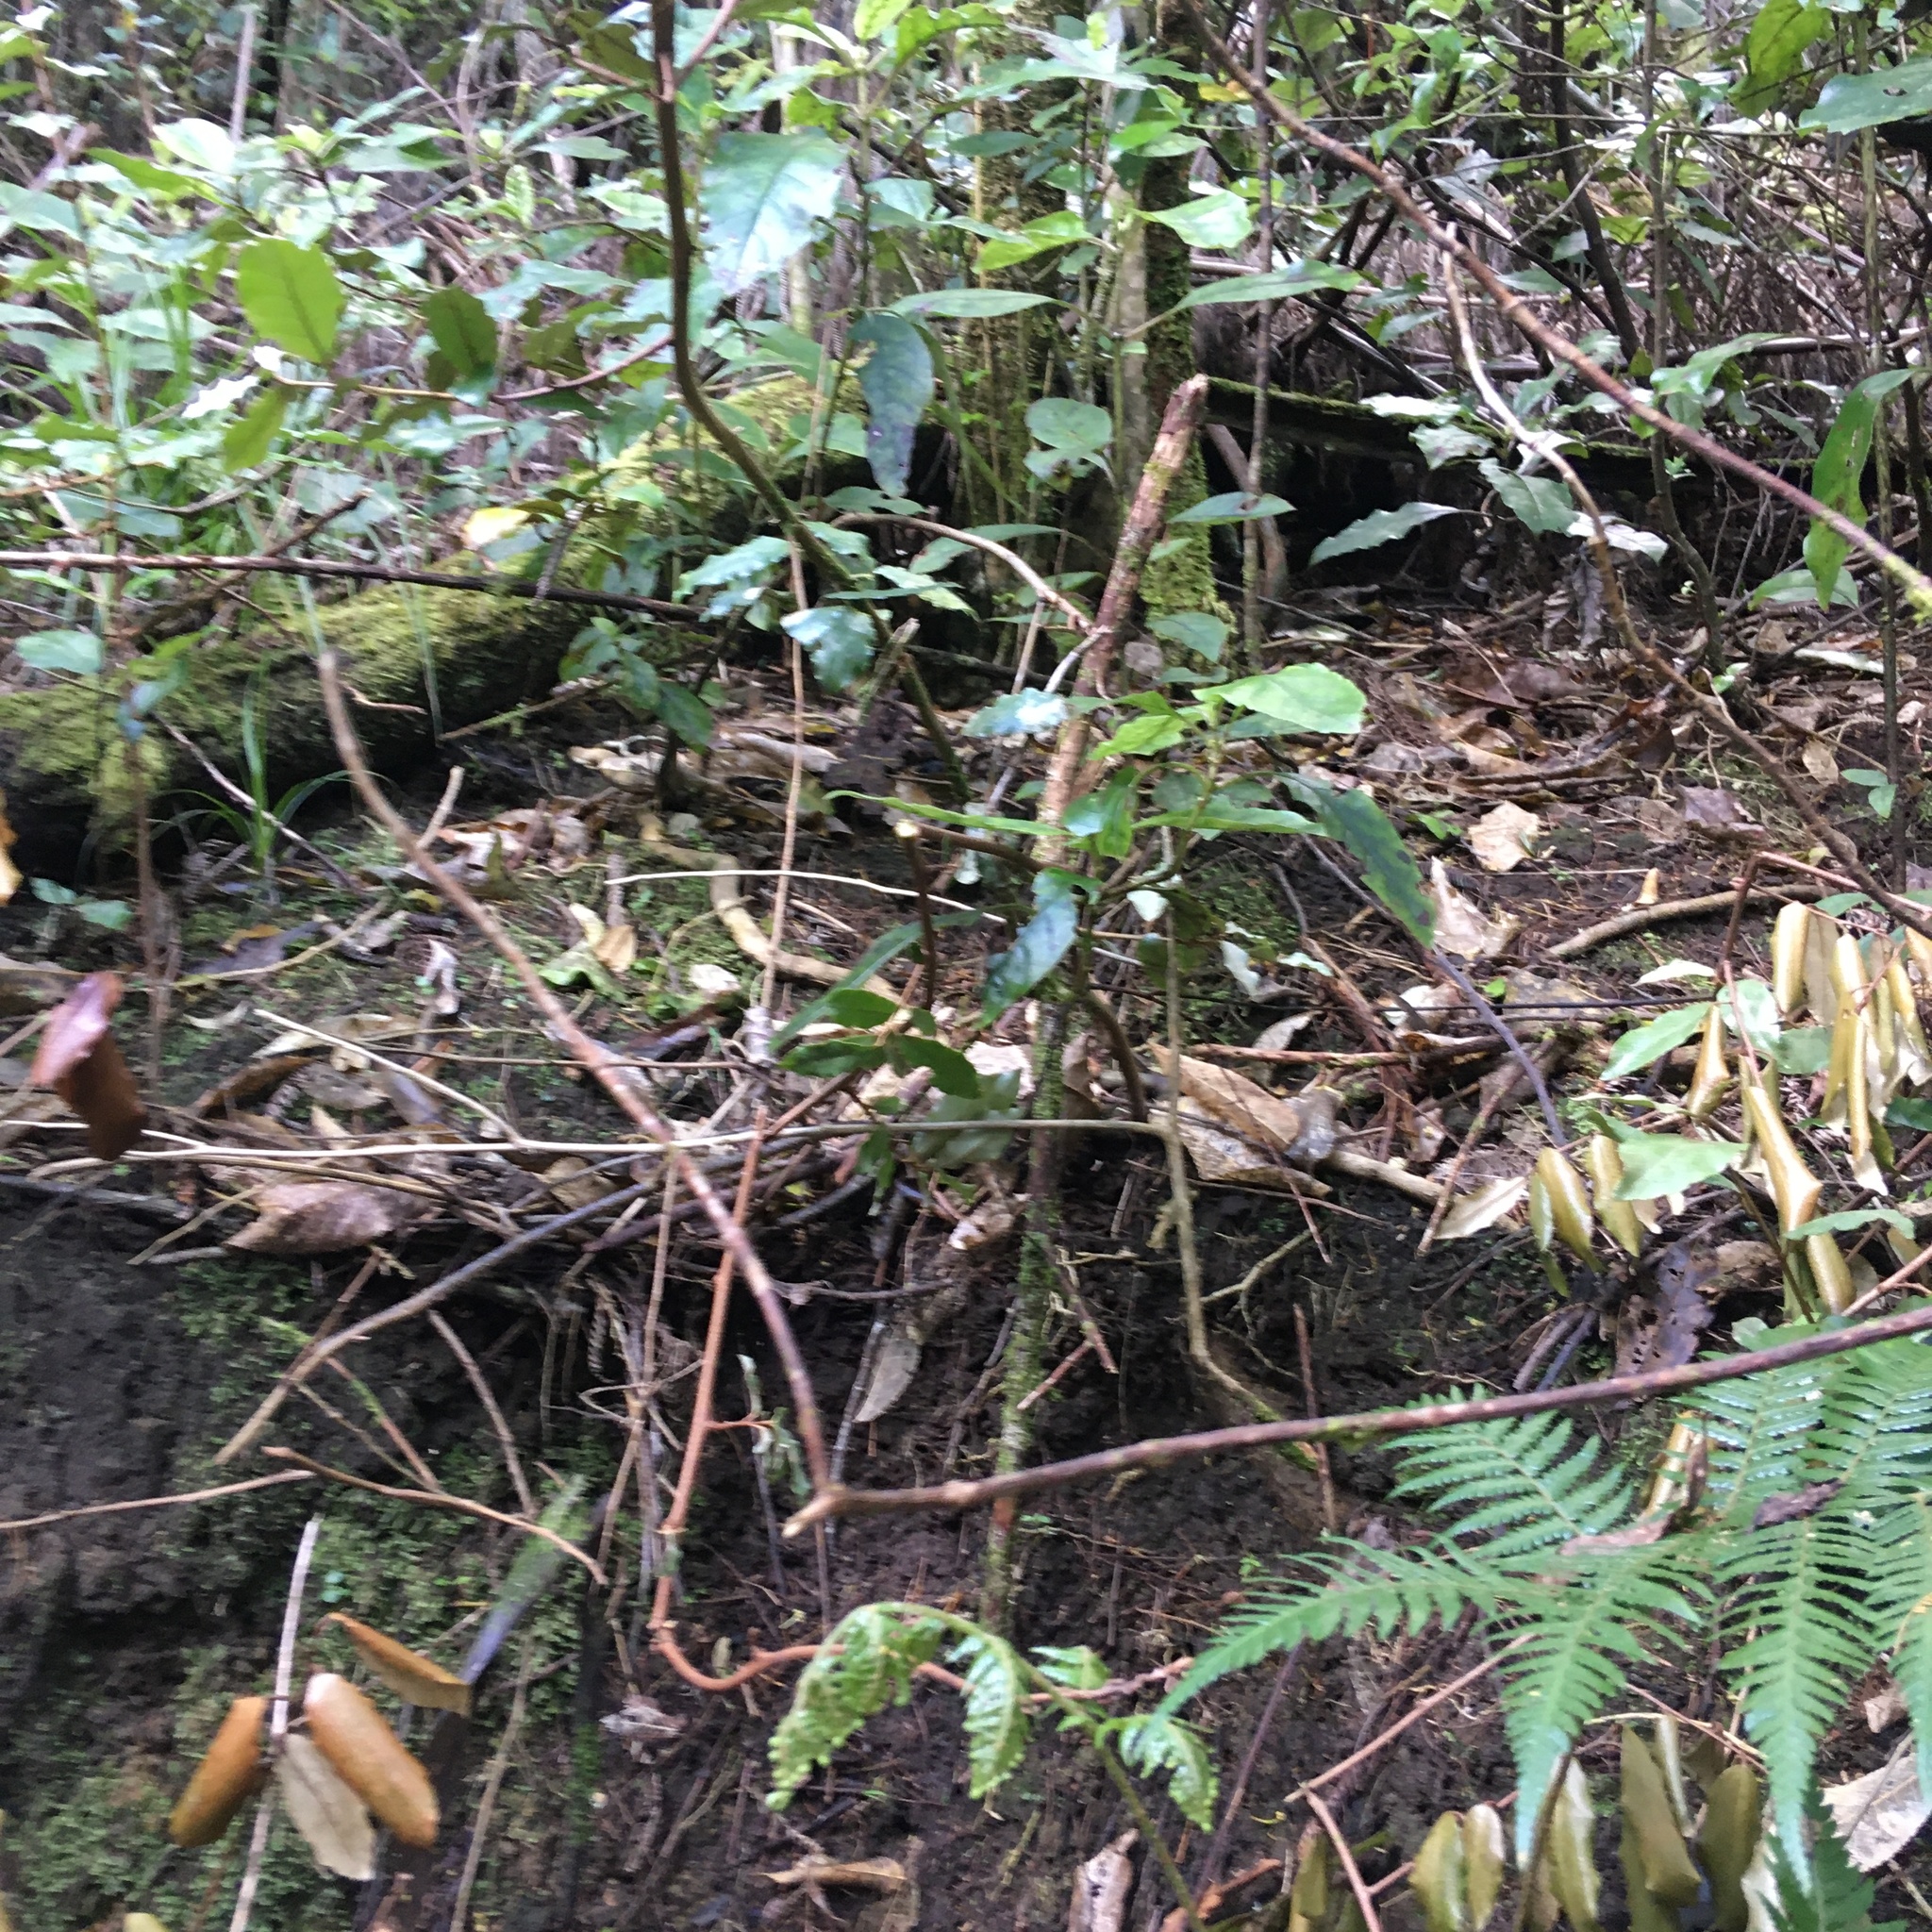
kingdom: Plantae
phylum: Tracheophyta
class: Magnoliopsida
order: Gentianales
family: Rubiaceae
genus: Coprosma
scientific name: Coprosma autumnalis
